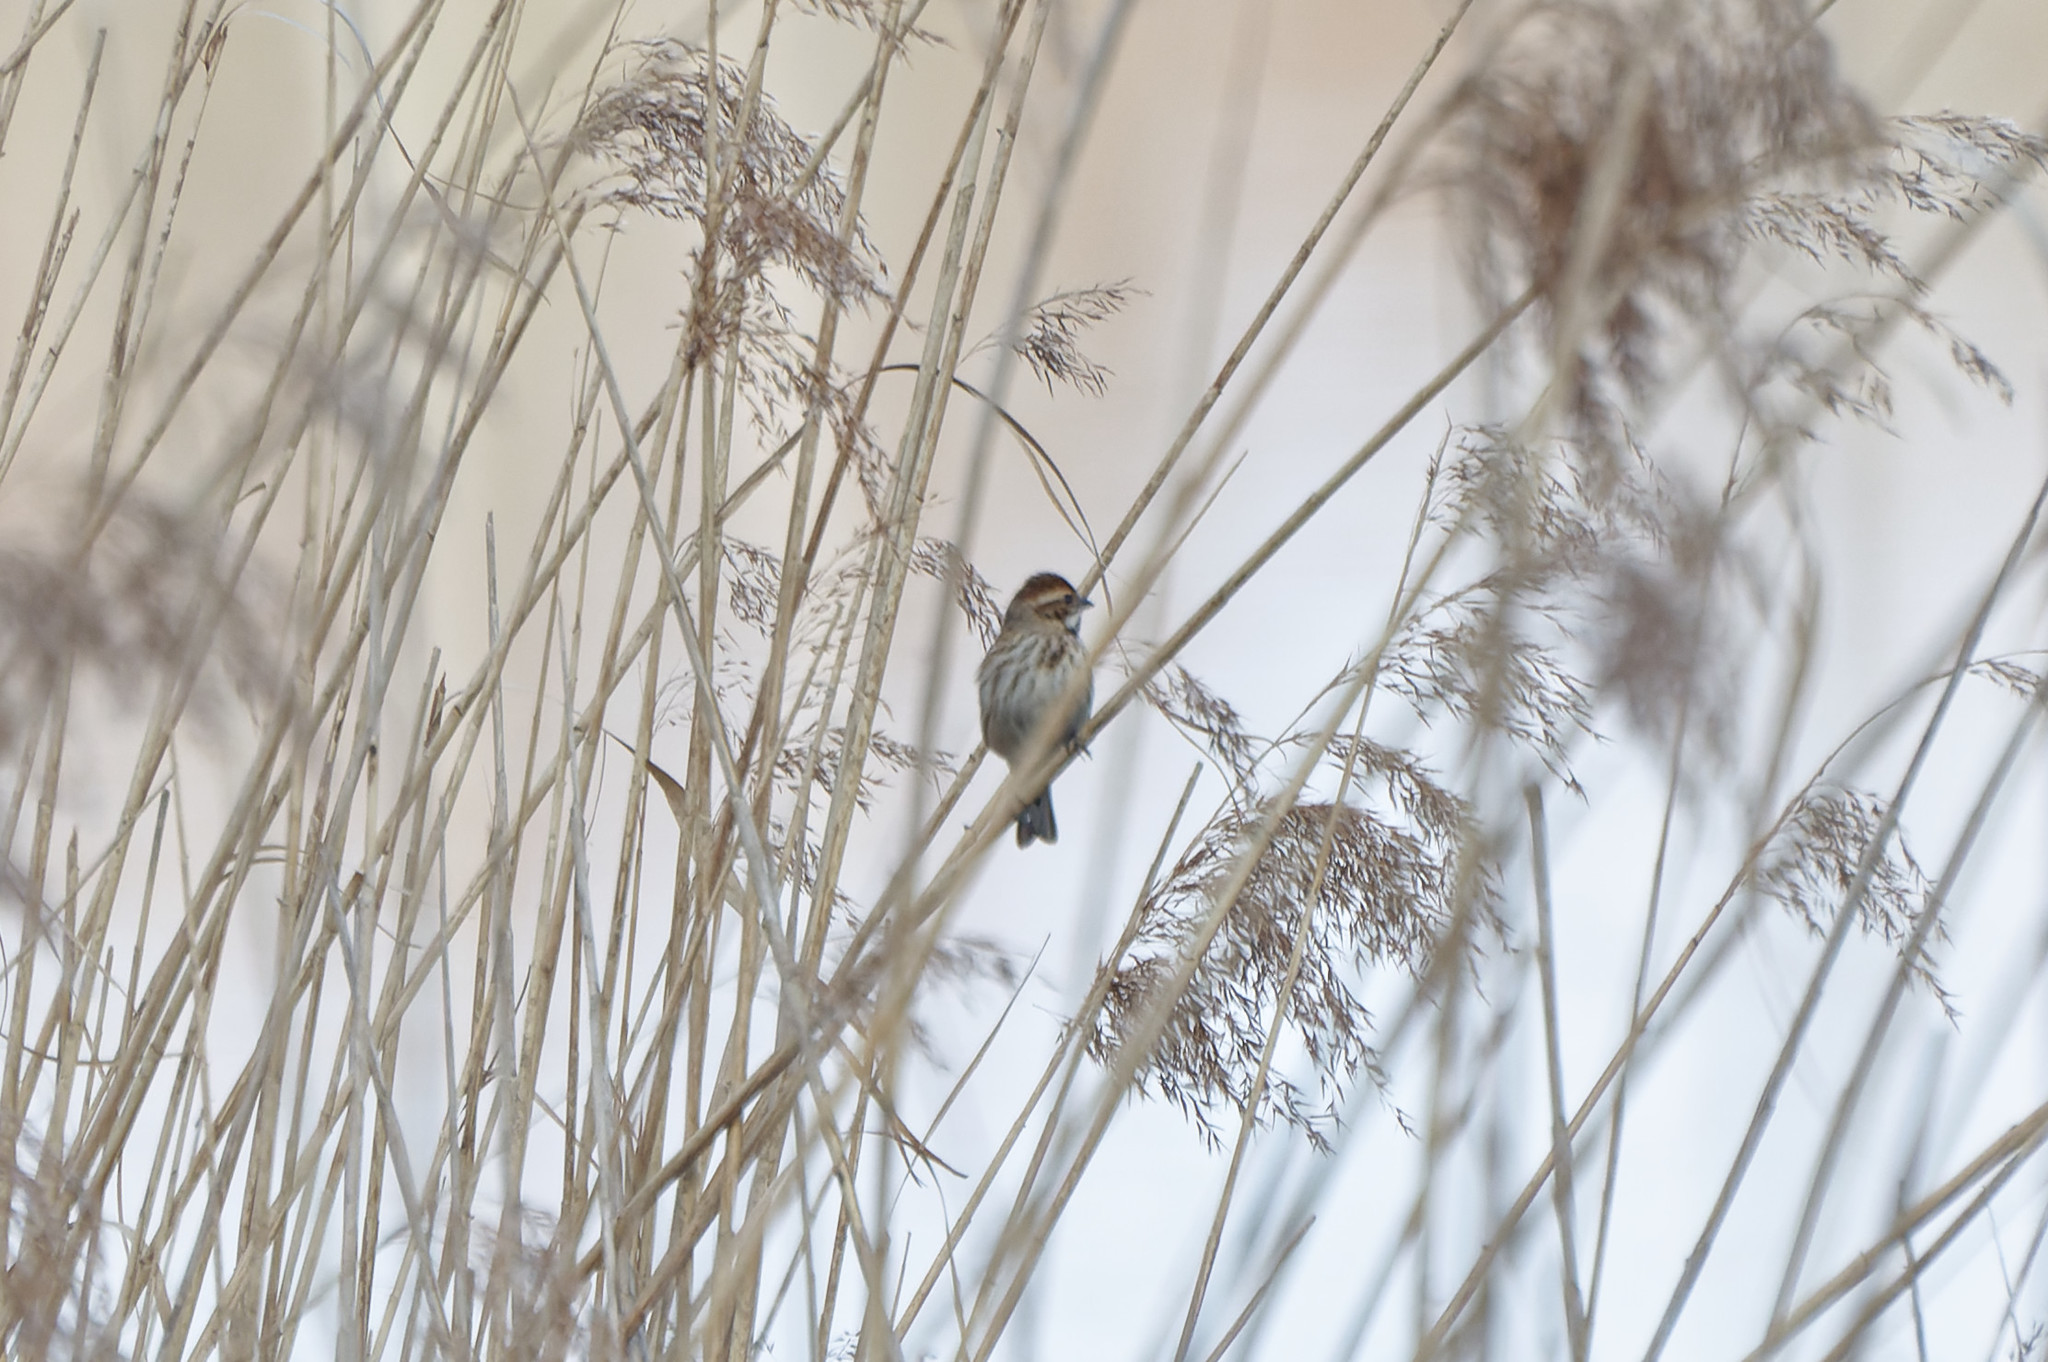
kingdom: Animalia
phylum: Chordata
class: Aves
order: Passeriformes
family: Emberizidae
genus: Emberiza
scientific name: Emberiza schoeniclus
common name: Reed bunting
